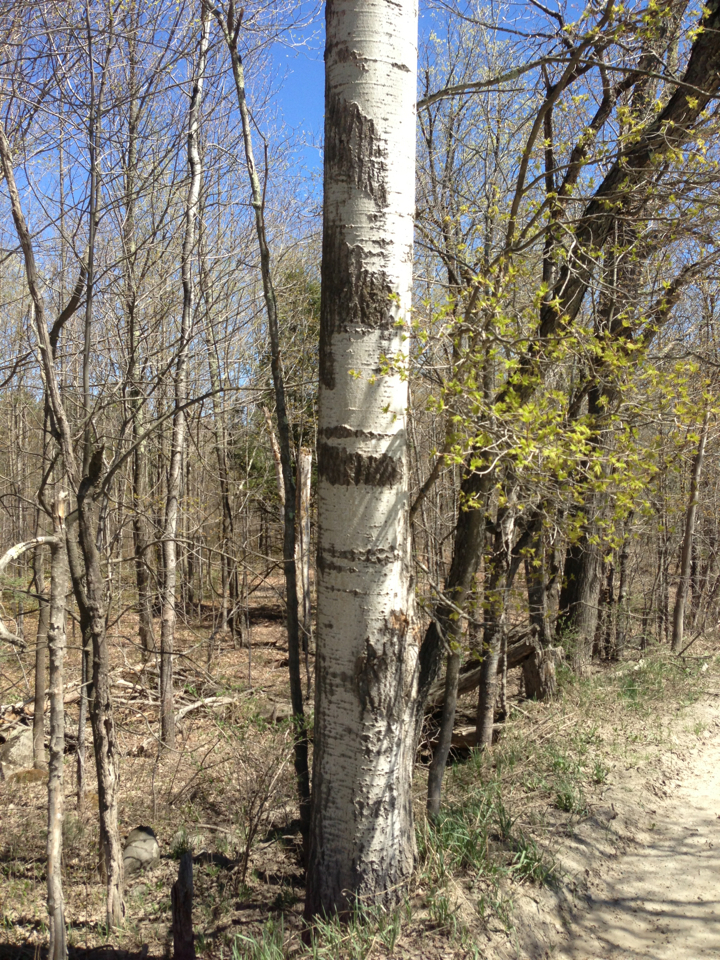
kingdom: Plantae
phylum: Tracheophyta
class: Magnoliopsida
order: Malpighiales
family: Salicaceae
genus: Populus
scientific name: Populus tremuloides
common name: Quaking aspen
